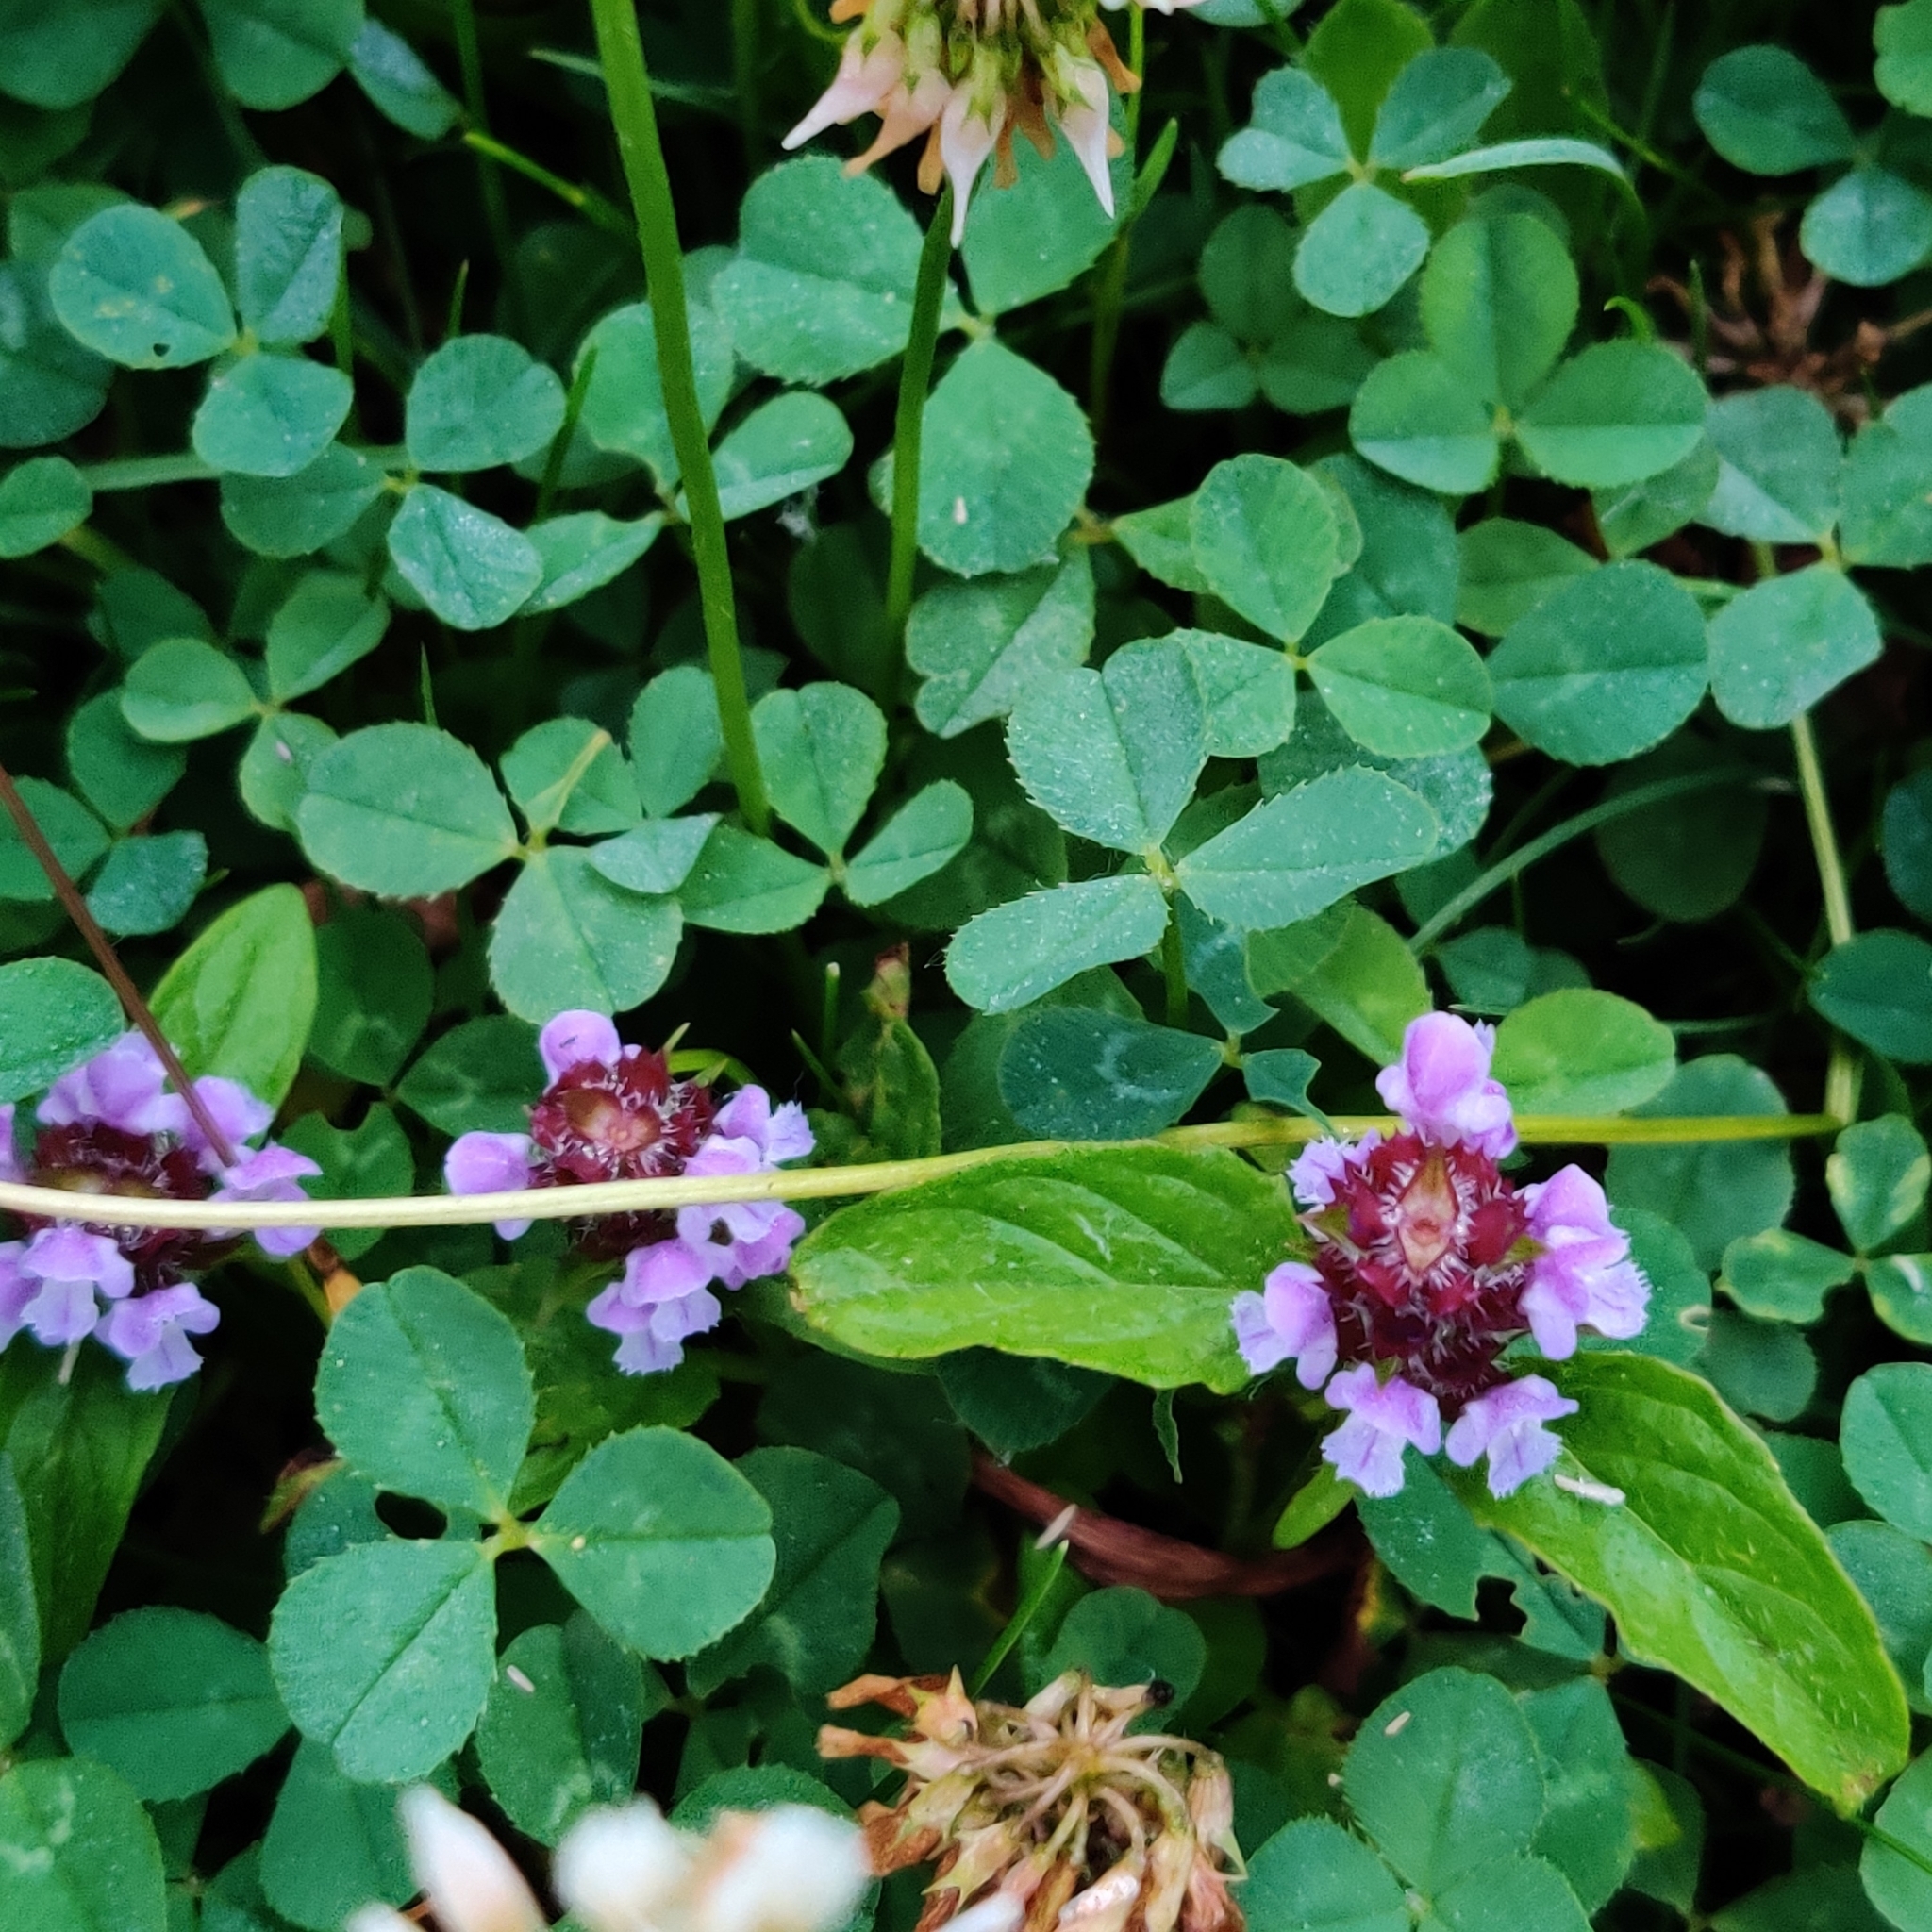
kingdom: Plantae
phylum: Tracheophyta
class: Magnoliopsida
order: Lamiales
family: Lamiaceae
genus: Prunella
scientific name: Prunella vulgaris
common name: Heal-all
